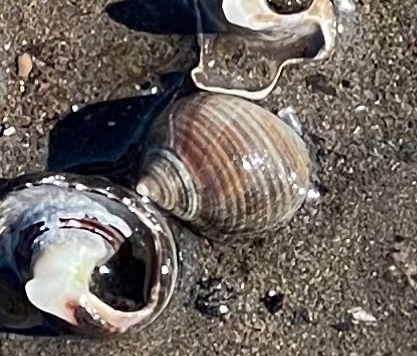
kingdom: Animalia
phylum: Mollusca
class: Gastropoda
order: Littorinimorpha
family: Littorinidae
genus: Littorina
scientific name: Littorina littorea
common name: Common periwinkle
